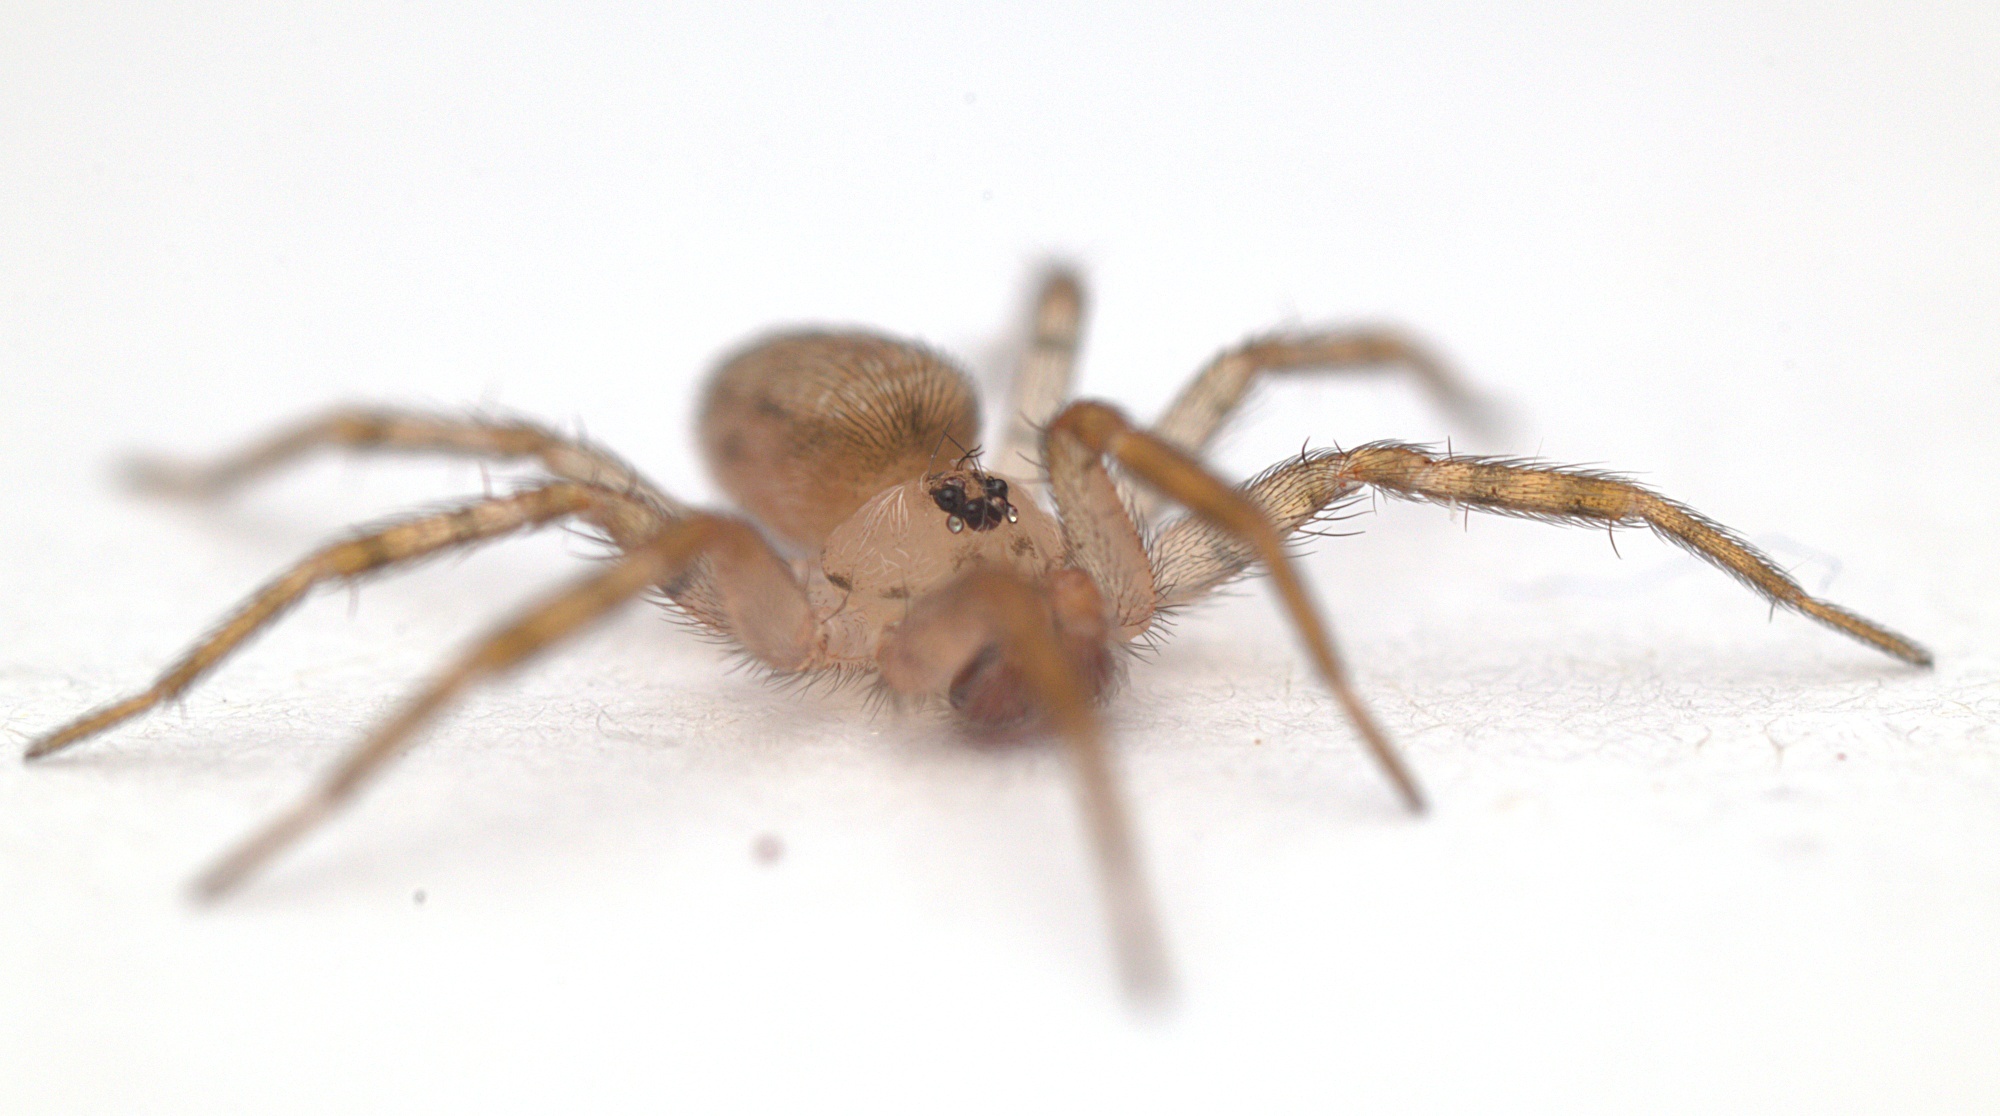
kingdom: Animalia
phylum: Arthropoda
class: Arachnida
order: Araneae
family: Oecobiidae
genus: Oecobius
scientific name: Oecobius navus
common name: Flatmesh weaver
